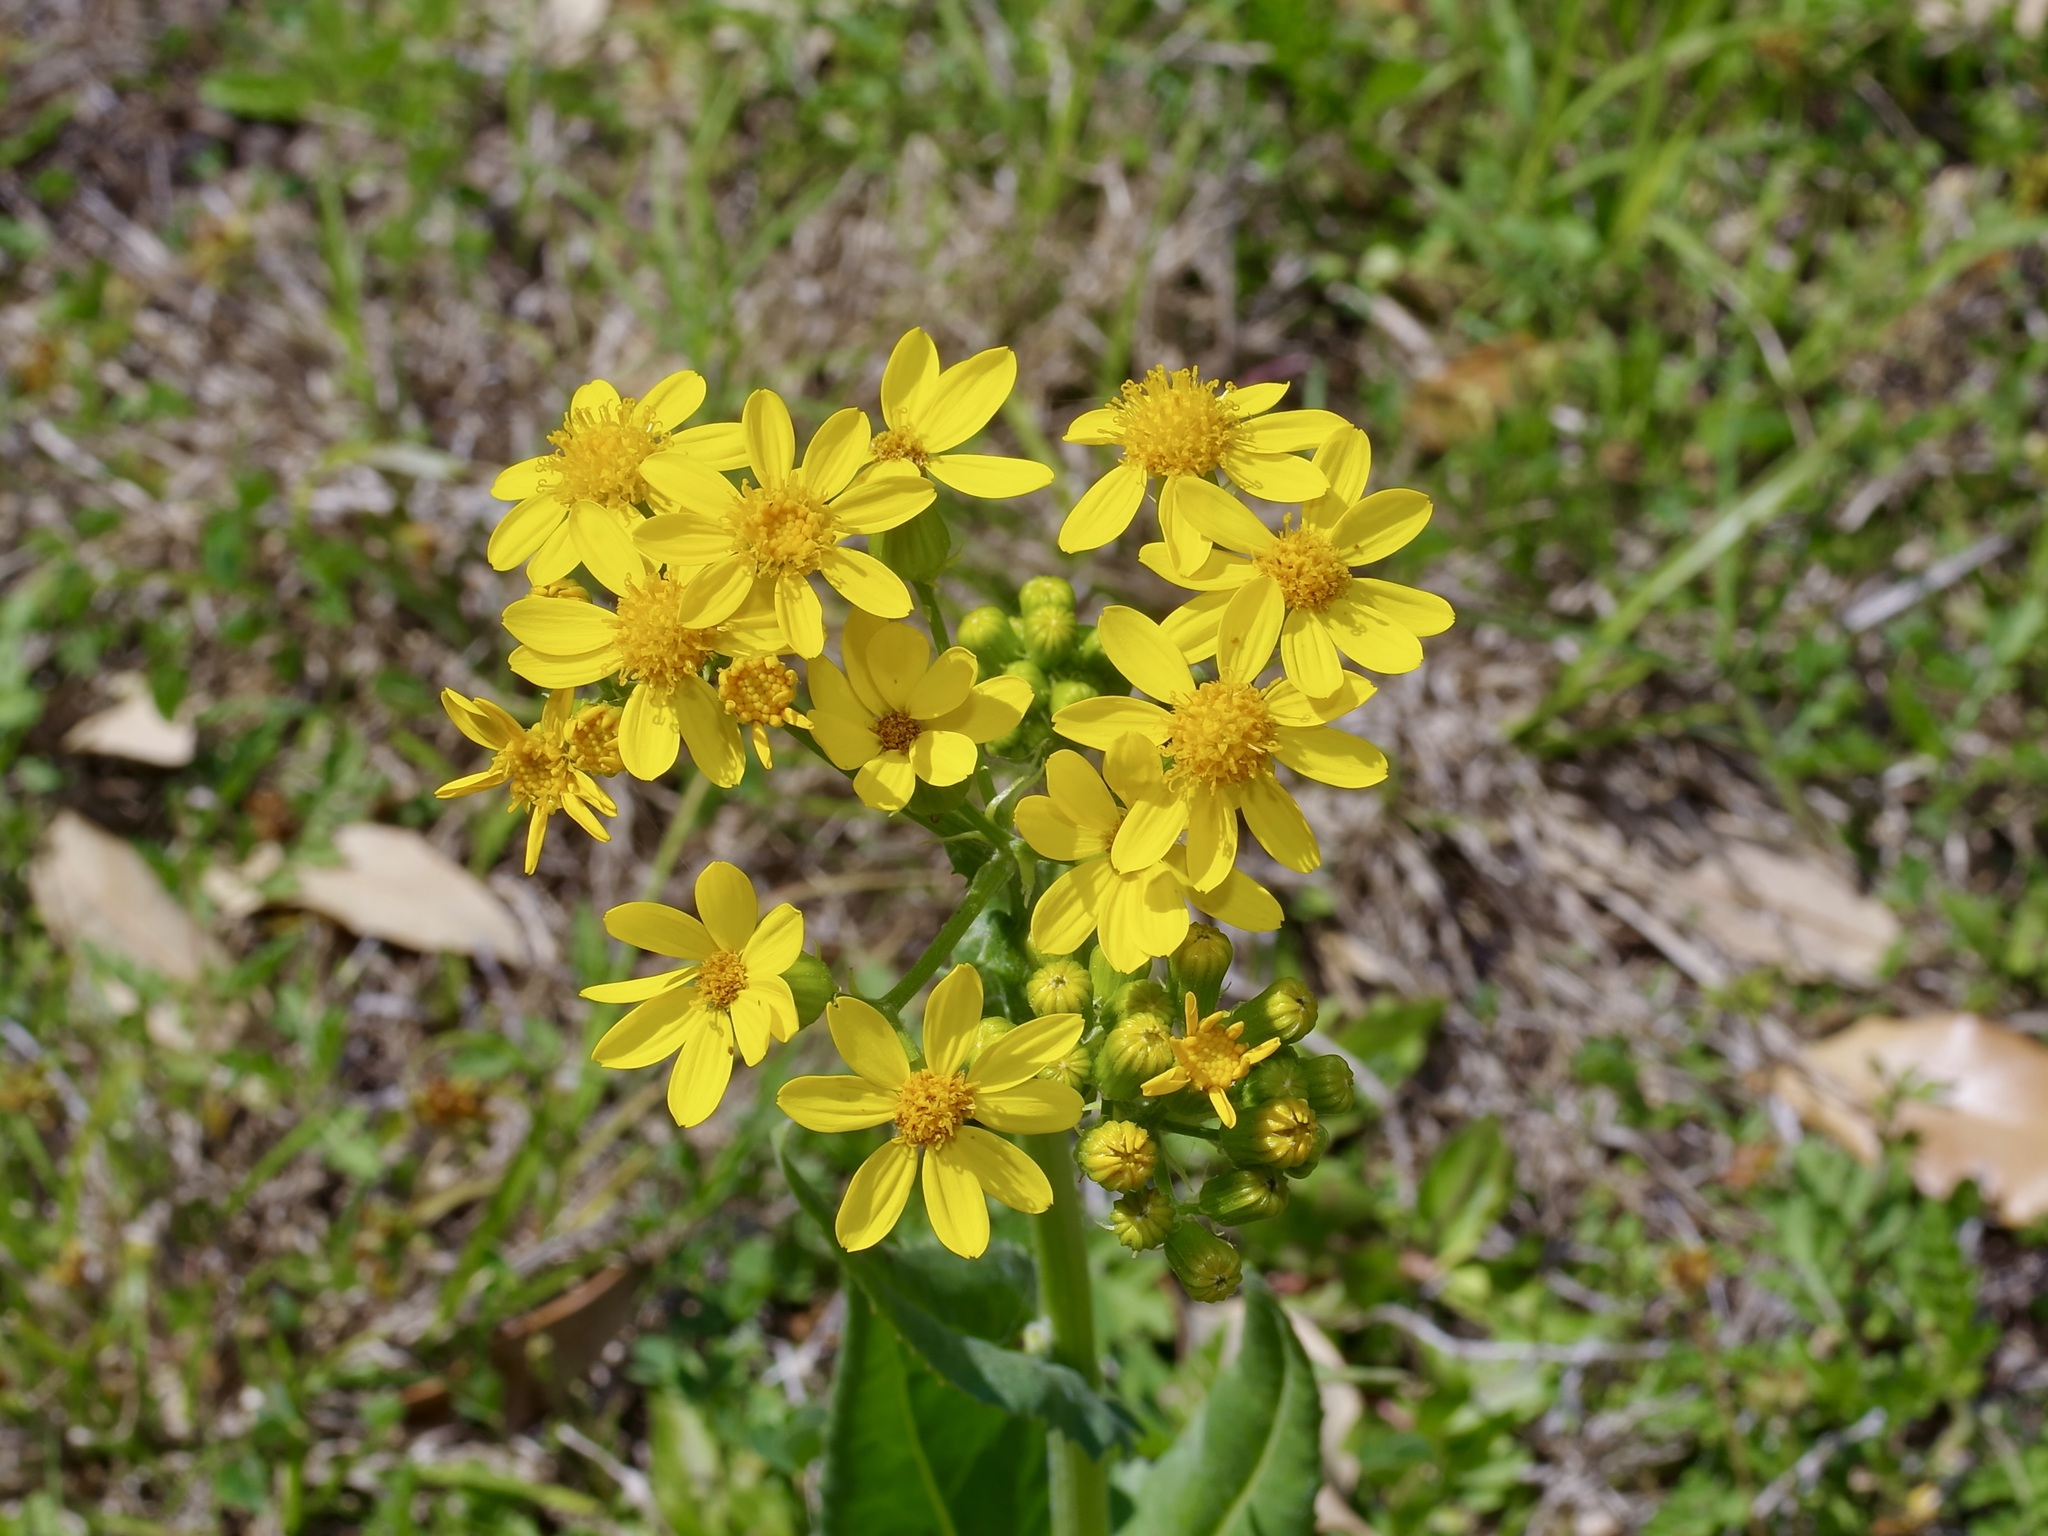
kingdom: Plantae
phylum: Tracheophyta
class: Magnoliopsida
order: Asterales
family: Asteraceae
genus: Senecio
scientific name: Senecio ampullaceus
